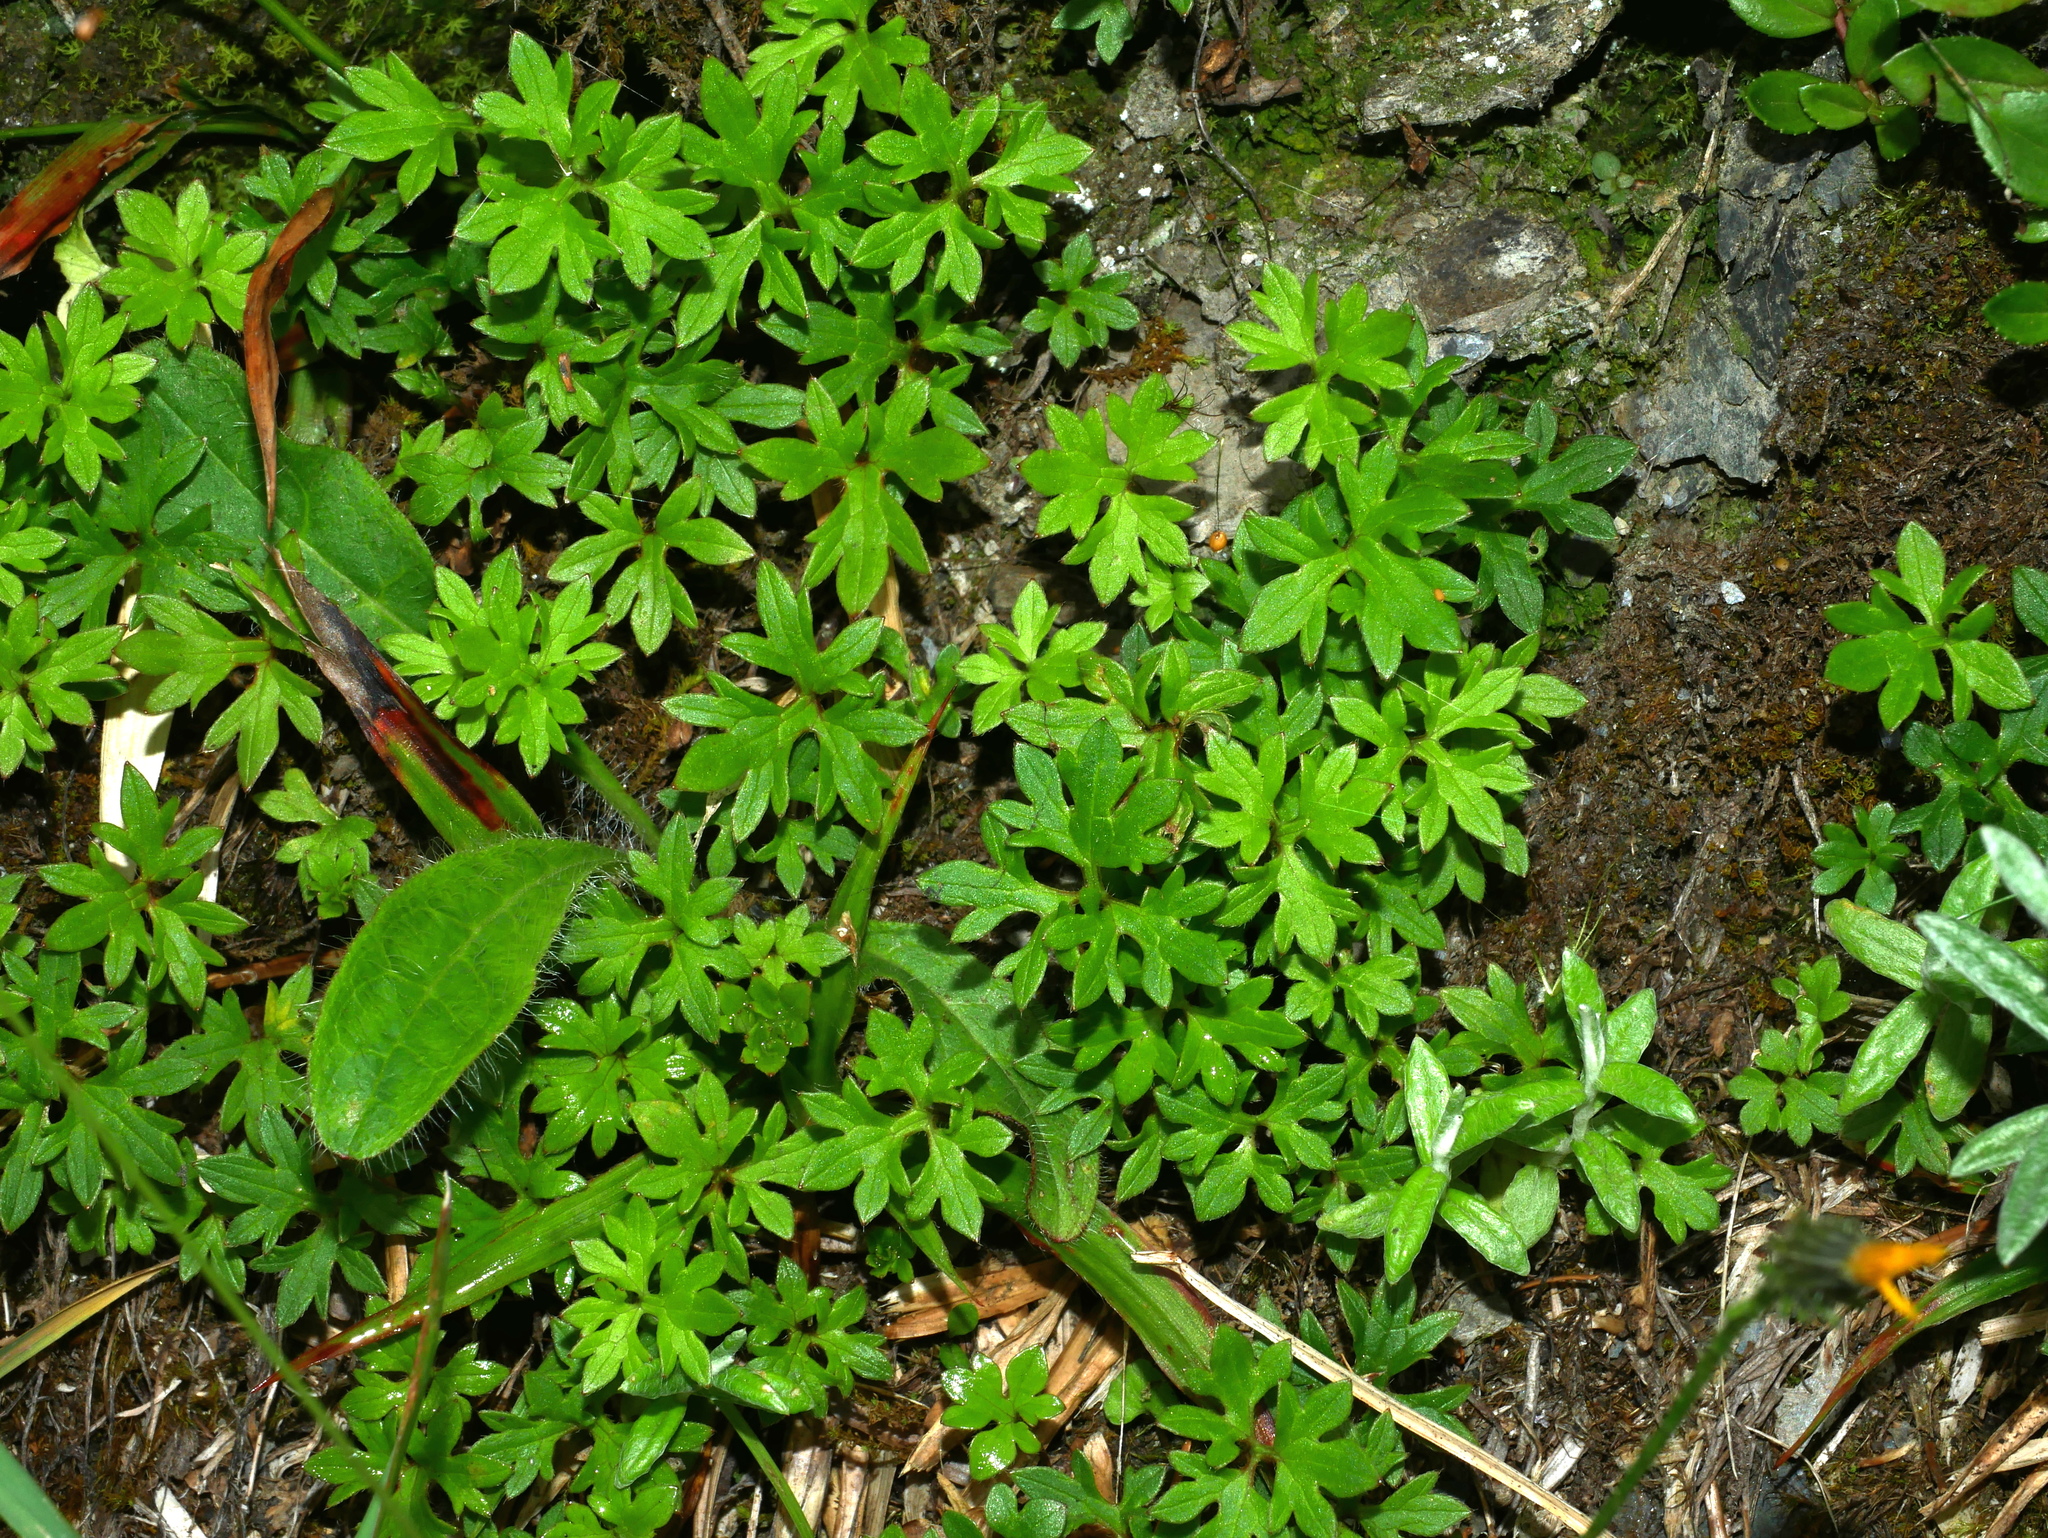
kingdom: Plantae
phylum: Tracheophyta
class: Magnoliopsida
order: Ranunculales
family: Ranunculaceae
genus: Ranunculus
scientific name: Ranunculus formosa-montanus
